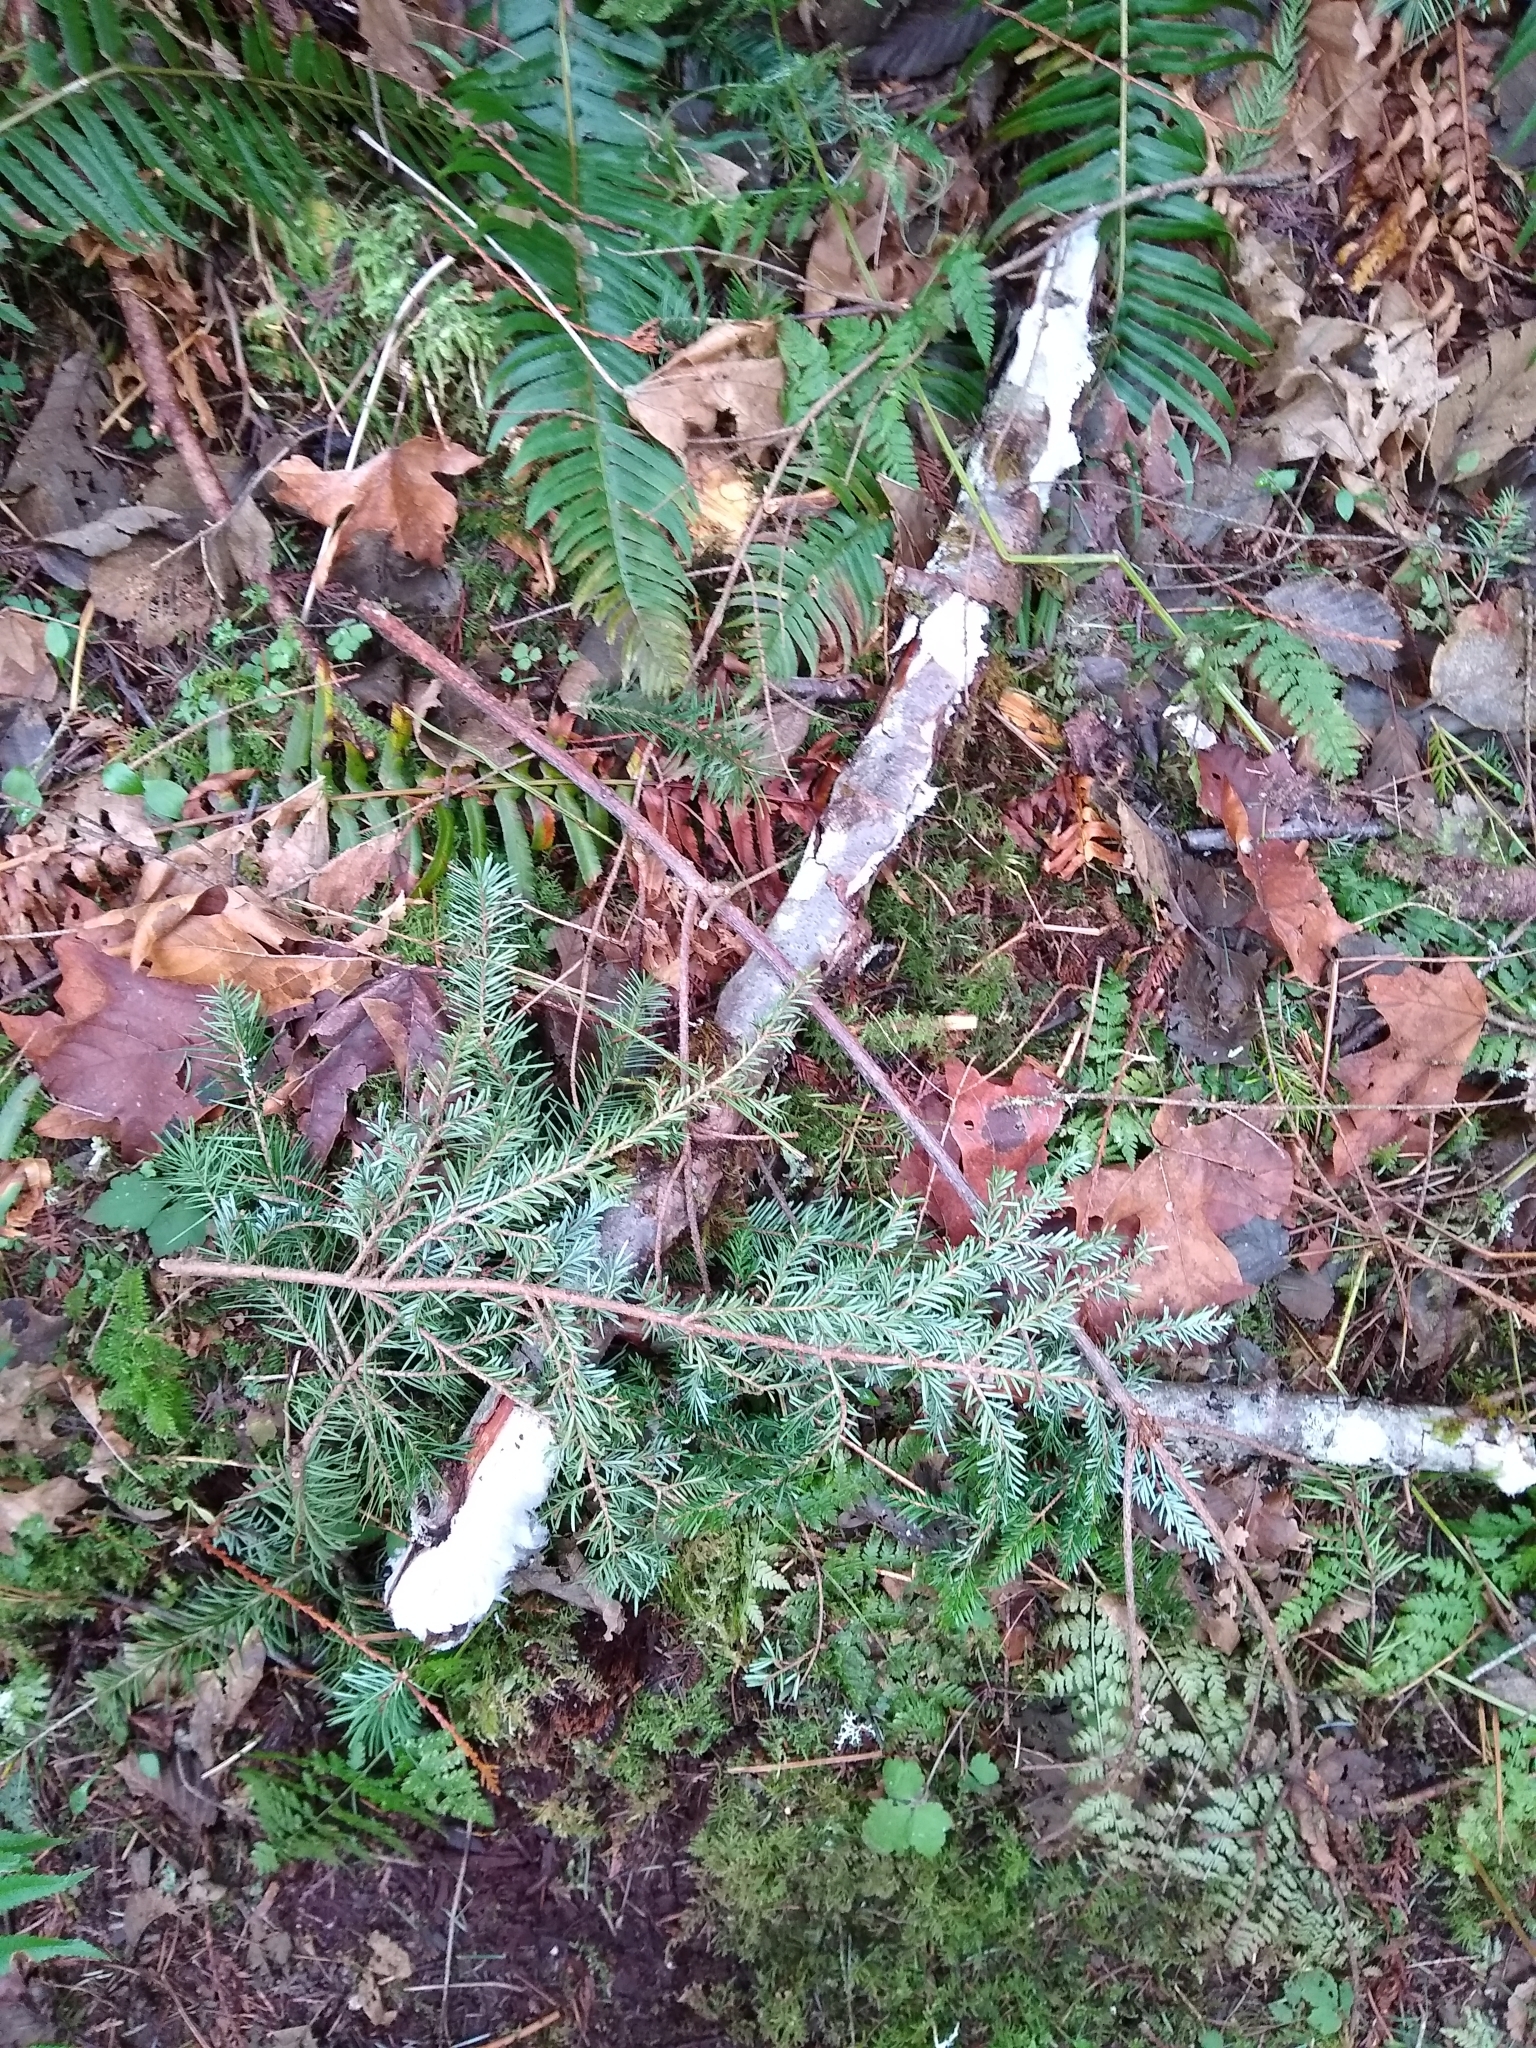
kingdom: Fungi
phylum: Basidiomycota
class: Agaricomycetes
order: Auriculariales
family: Auriculariaceae
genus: Exidiopsis
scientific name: Exidiopsis effusa
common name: Hair ice crust
